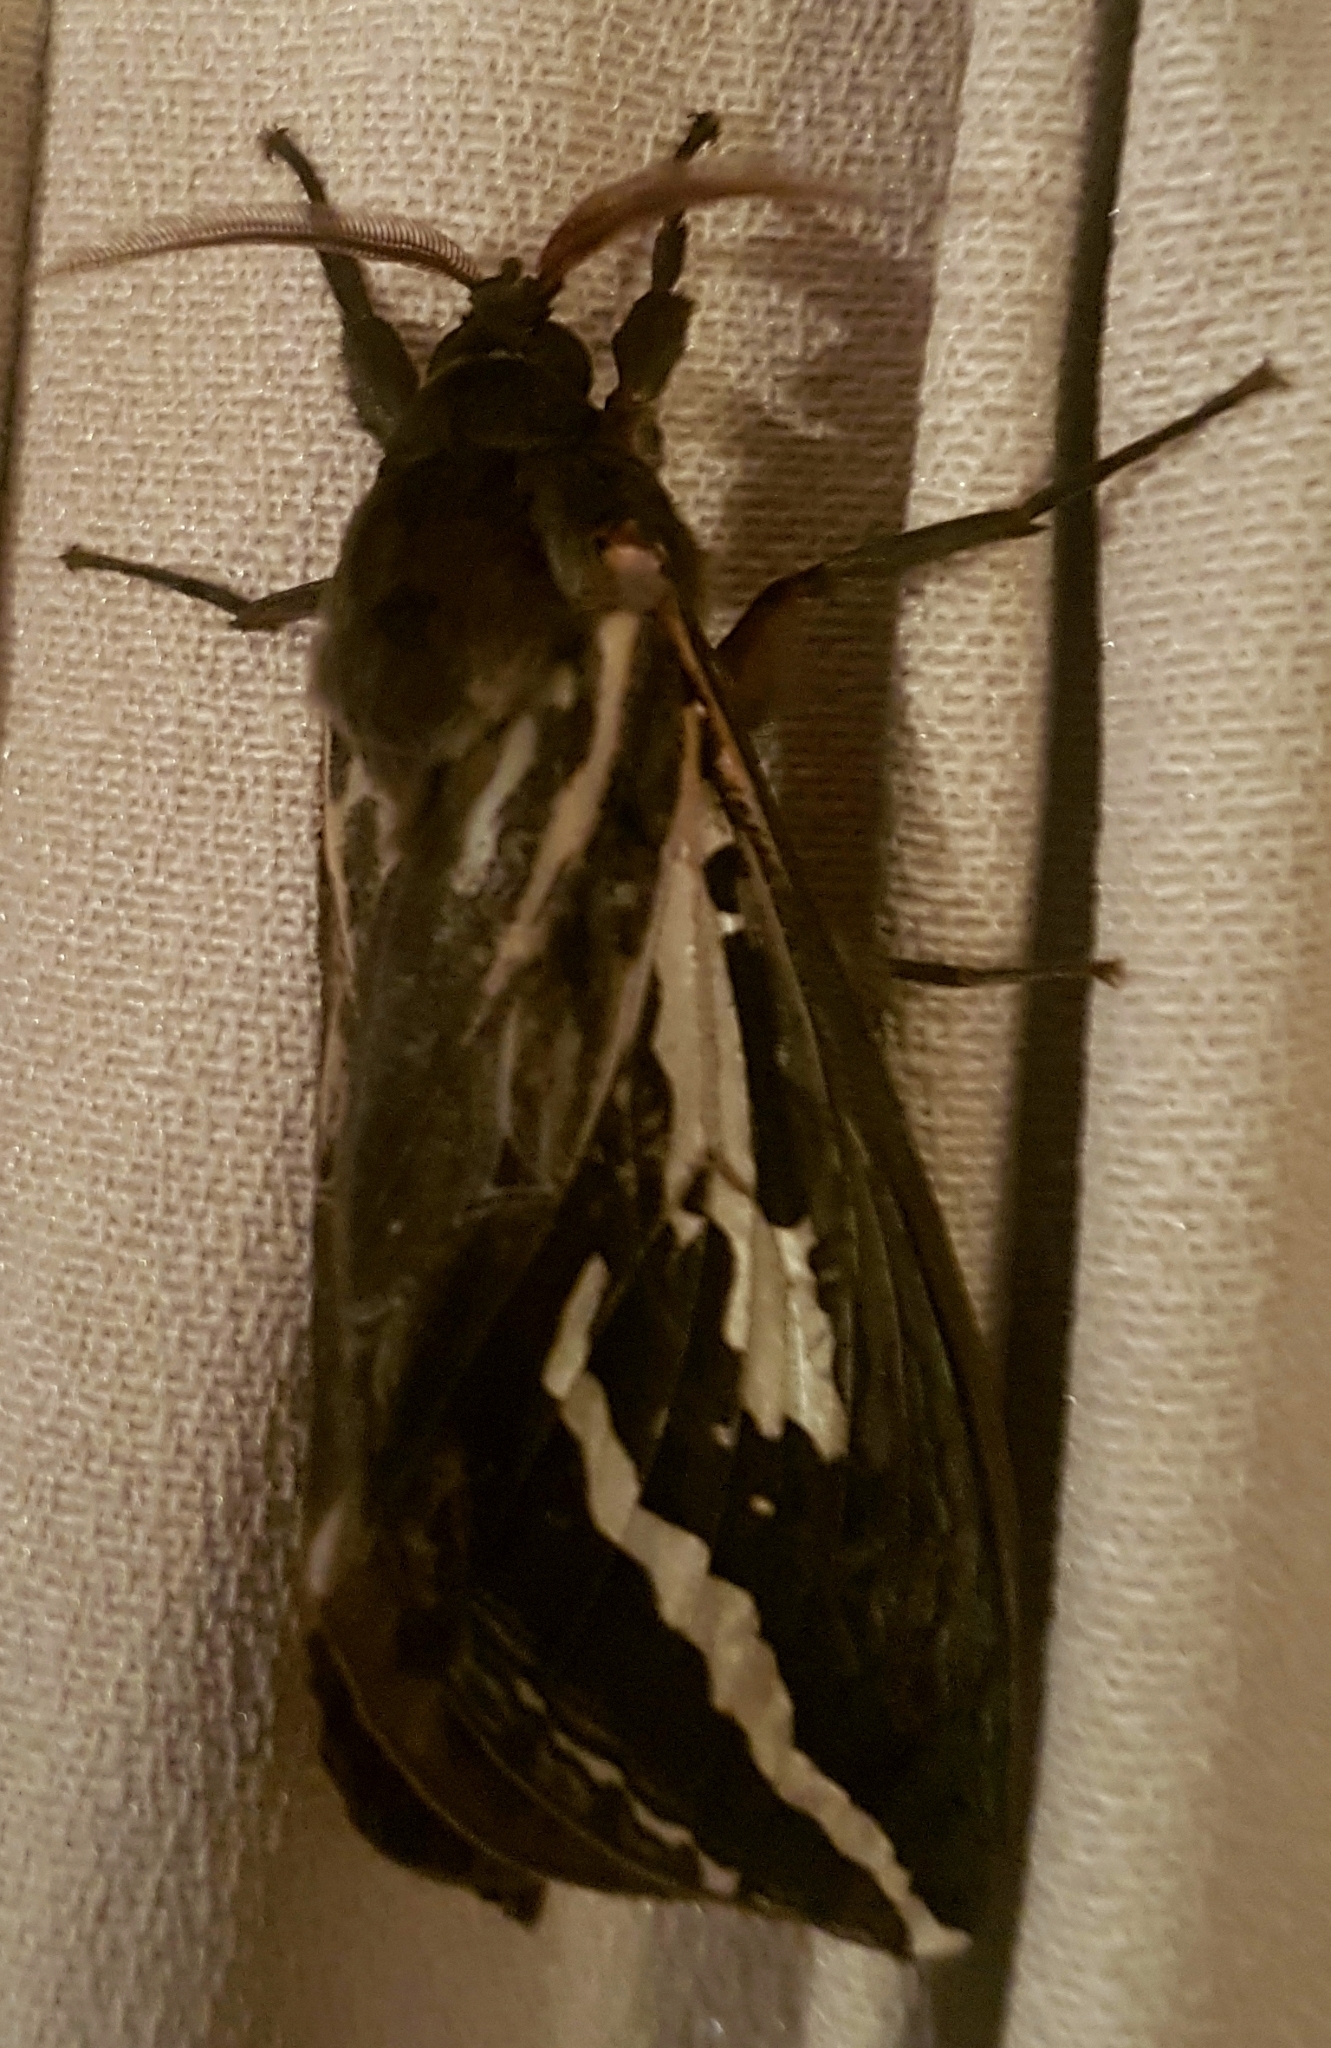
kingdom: Animalia
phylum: Arthropoda
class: Insecta
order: Lepidoptera
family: Hepialidae
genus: Abantiades
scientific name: Abantiades atripalpis
